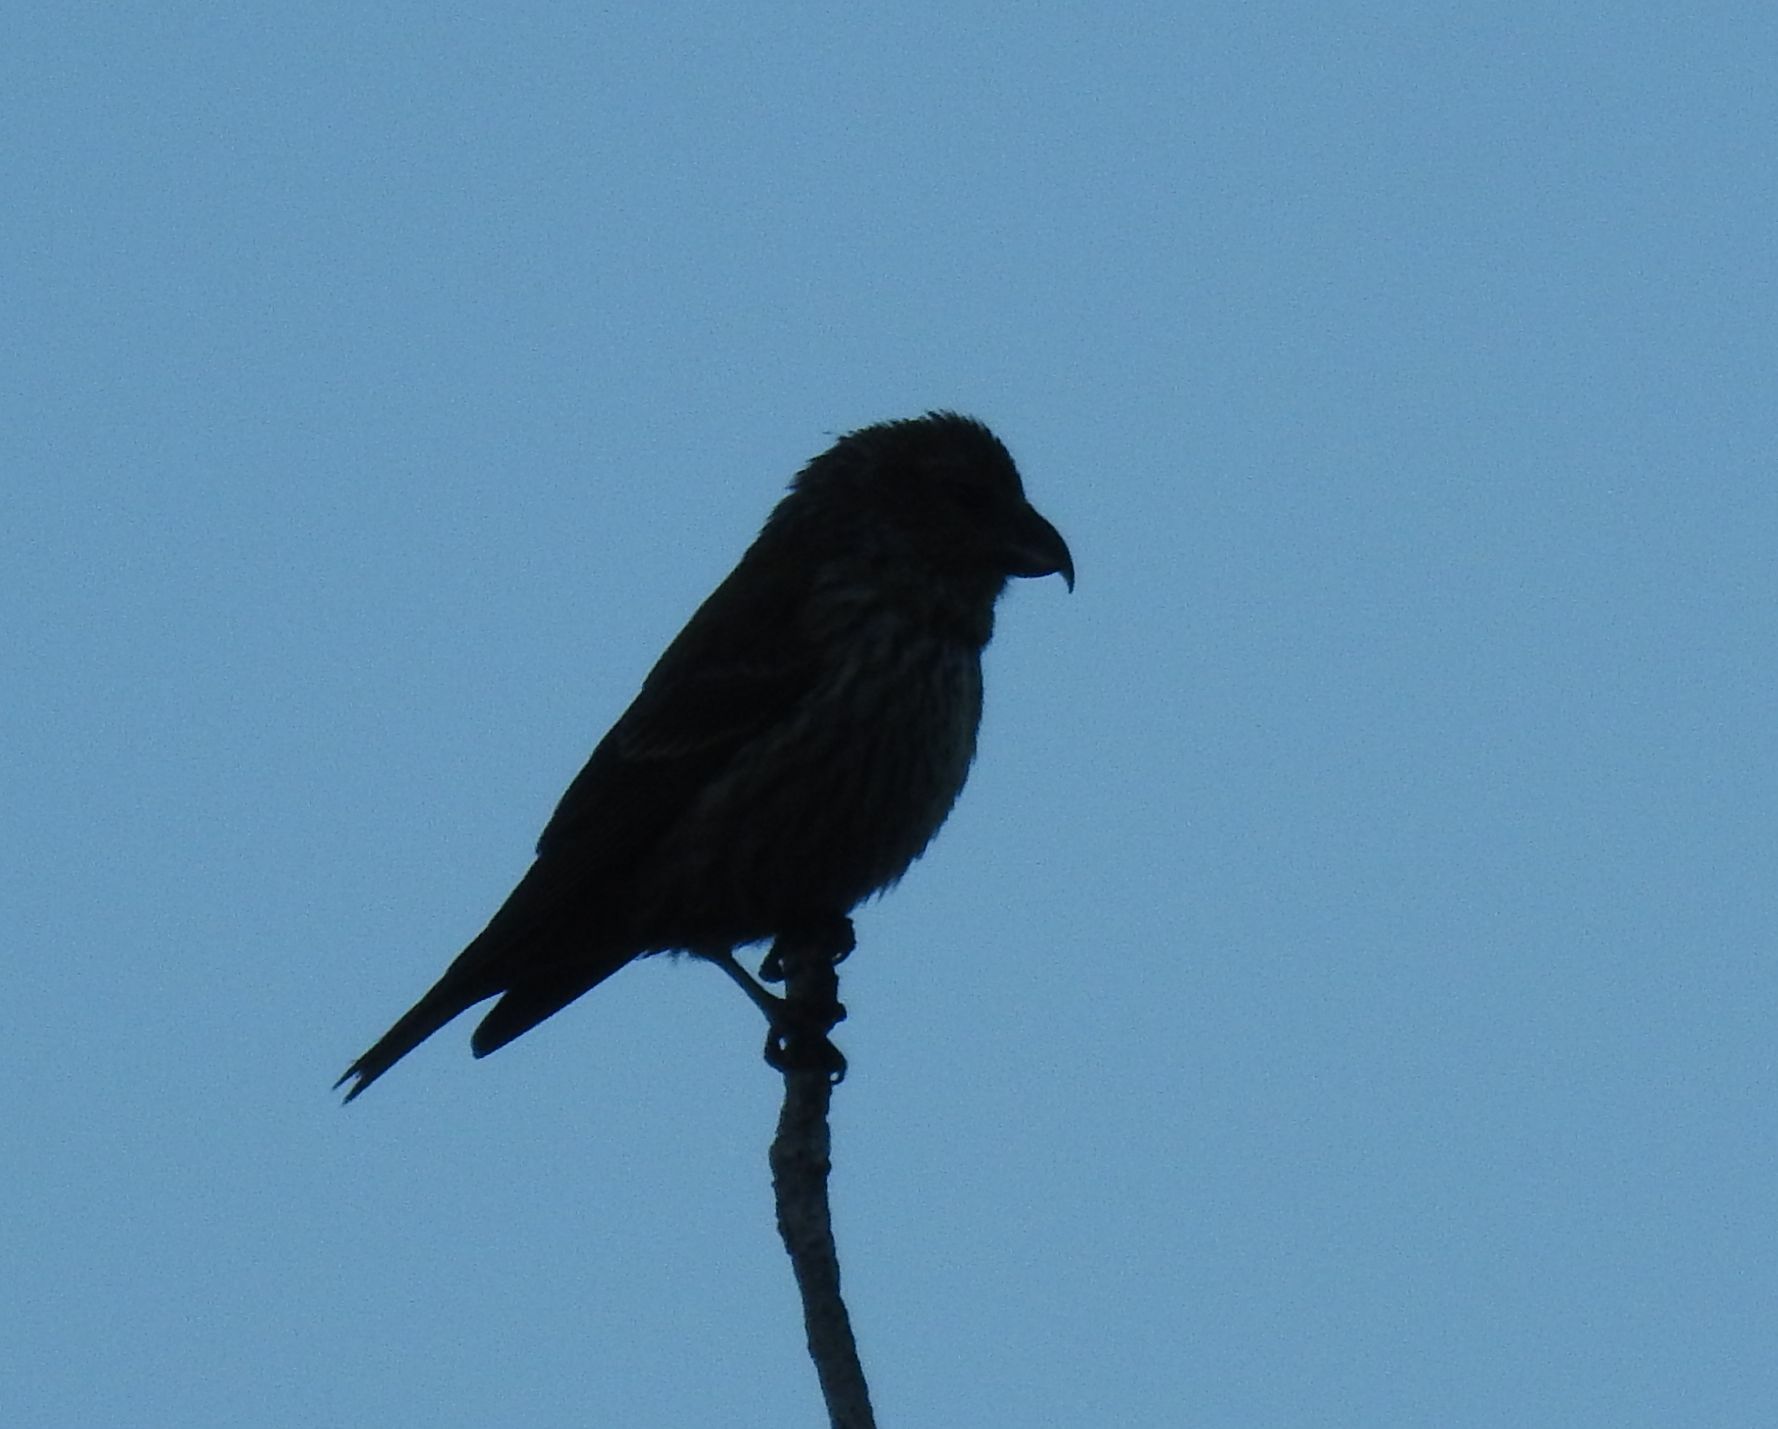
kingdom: Animalia
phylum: Chordata
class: Aves
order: Passeriformes
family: Fringillidae
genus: Loxia
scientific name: Loxia curvirostra
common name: Red crossbill
